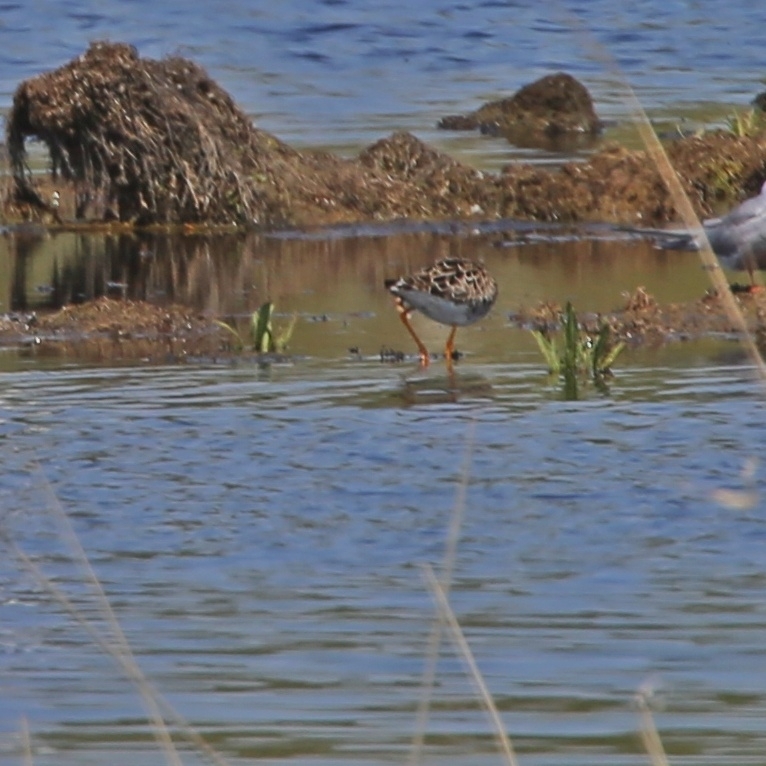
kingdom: Animalia
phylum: Chordata
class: Aves
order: Charadriiformes
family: Scolopacidae
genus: Calidris
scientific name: Calidris pugnax
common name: Ruff
